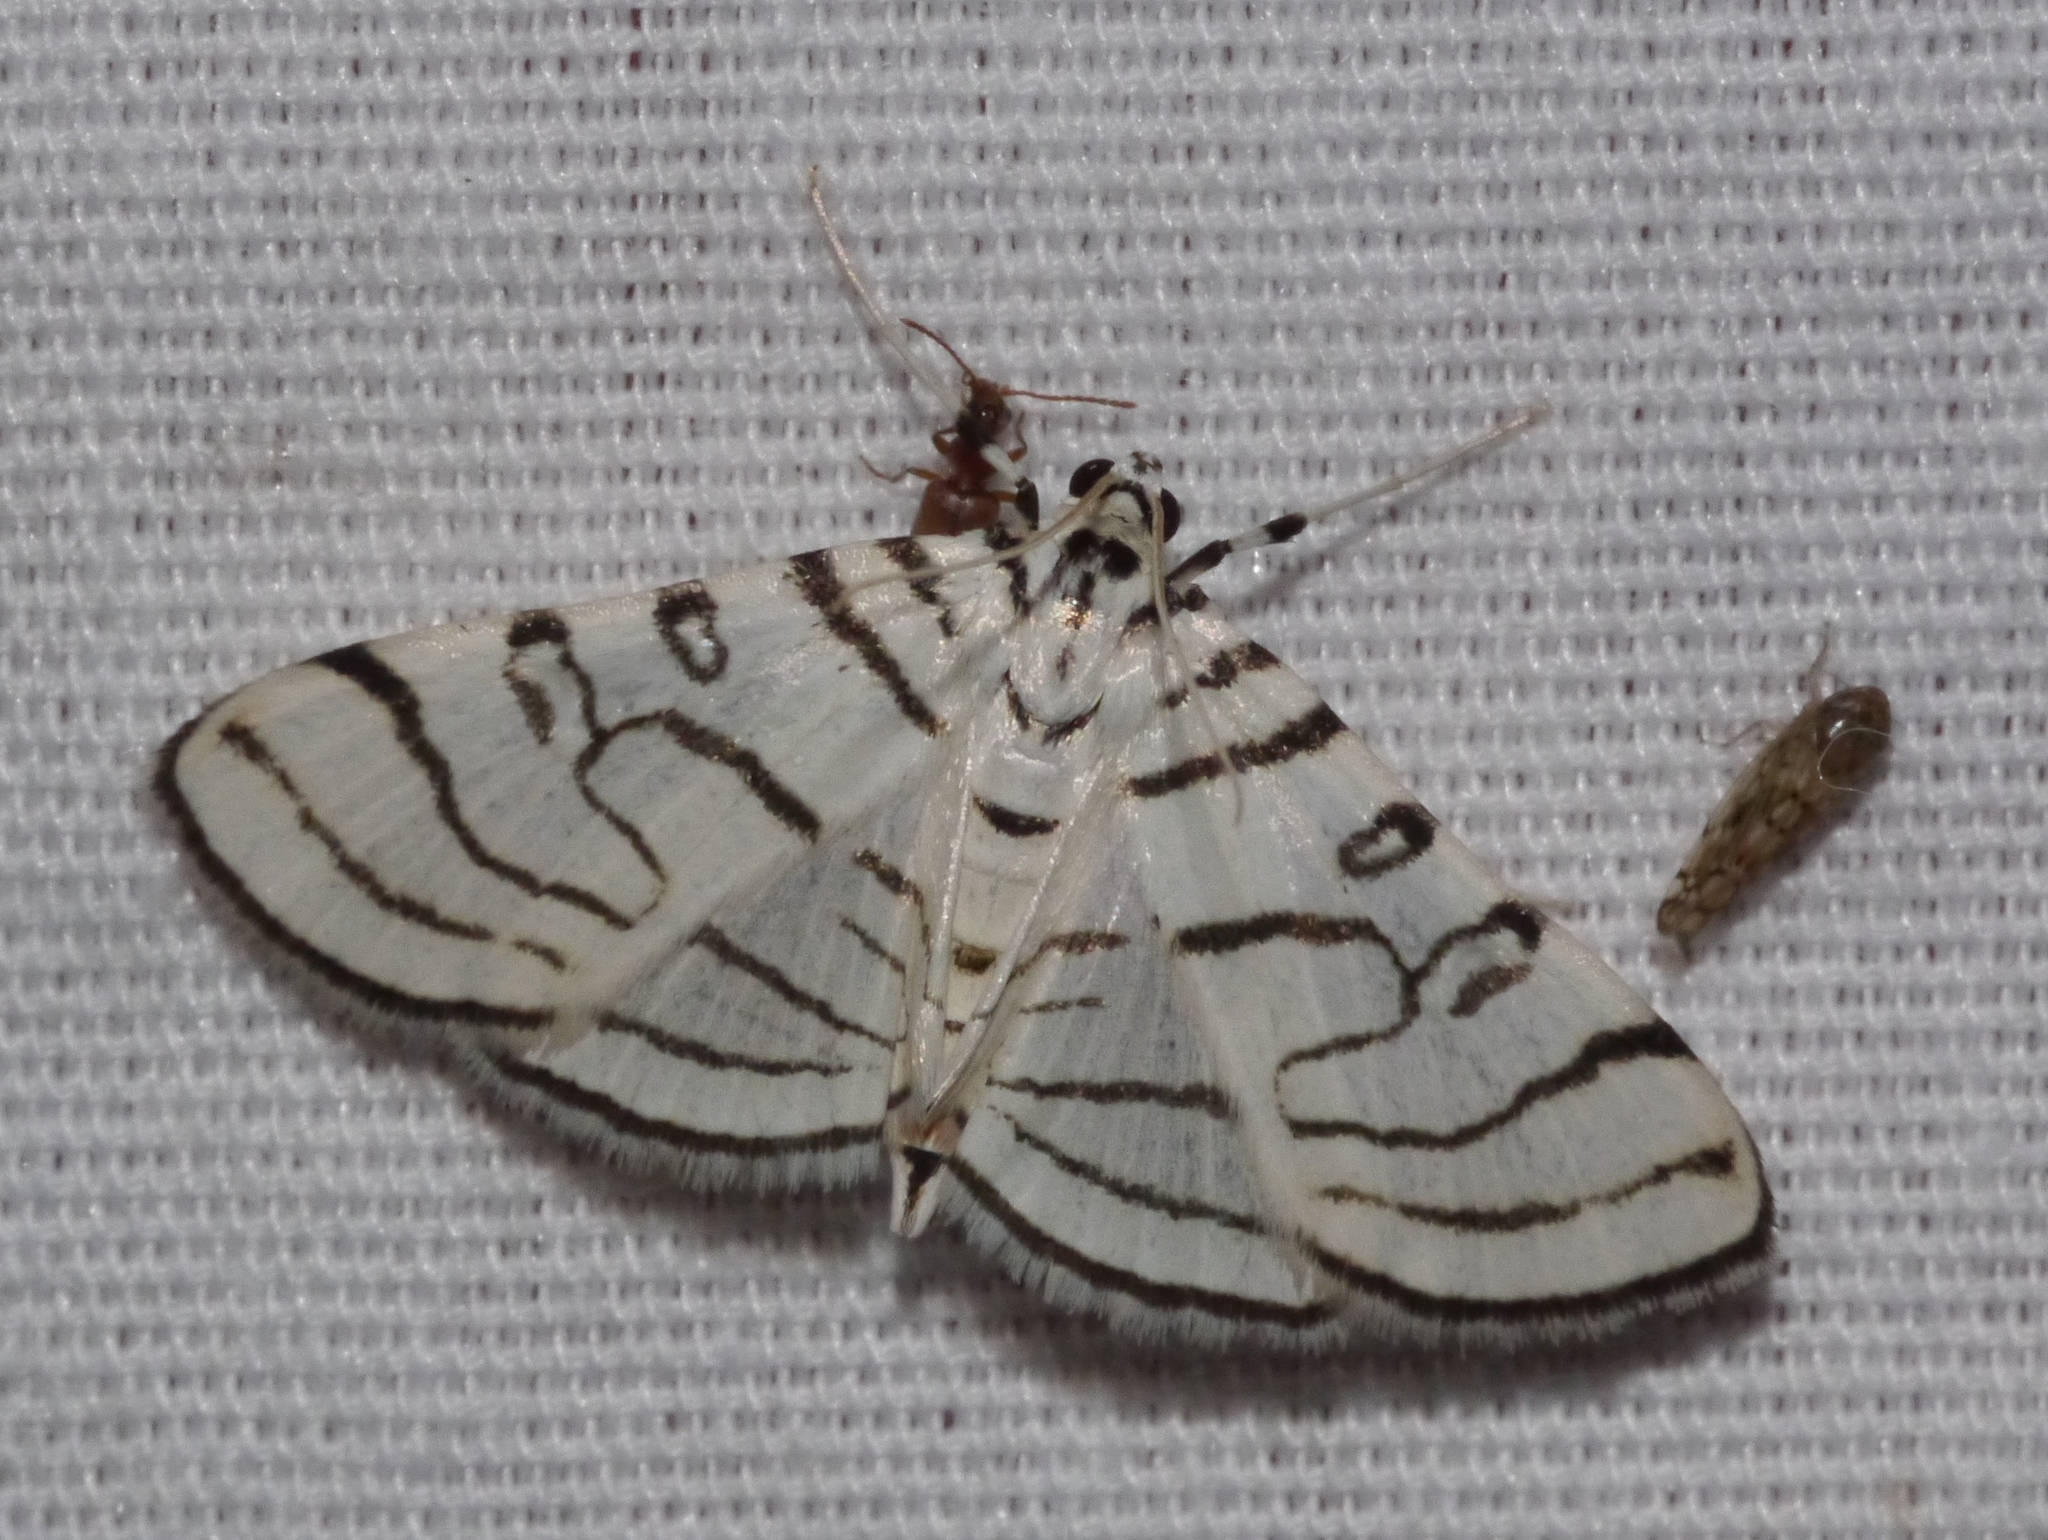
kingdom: Animalia
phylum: Arthropoda
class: Insecta
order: Lepidoptera
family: Crambidae
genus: Conchylodes
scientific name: Conchylodes concinnalis
